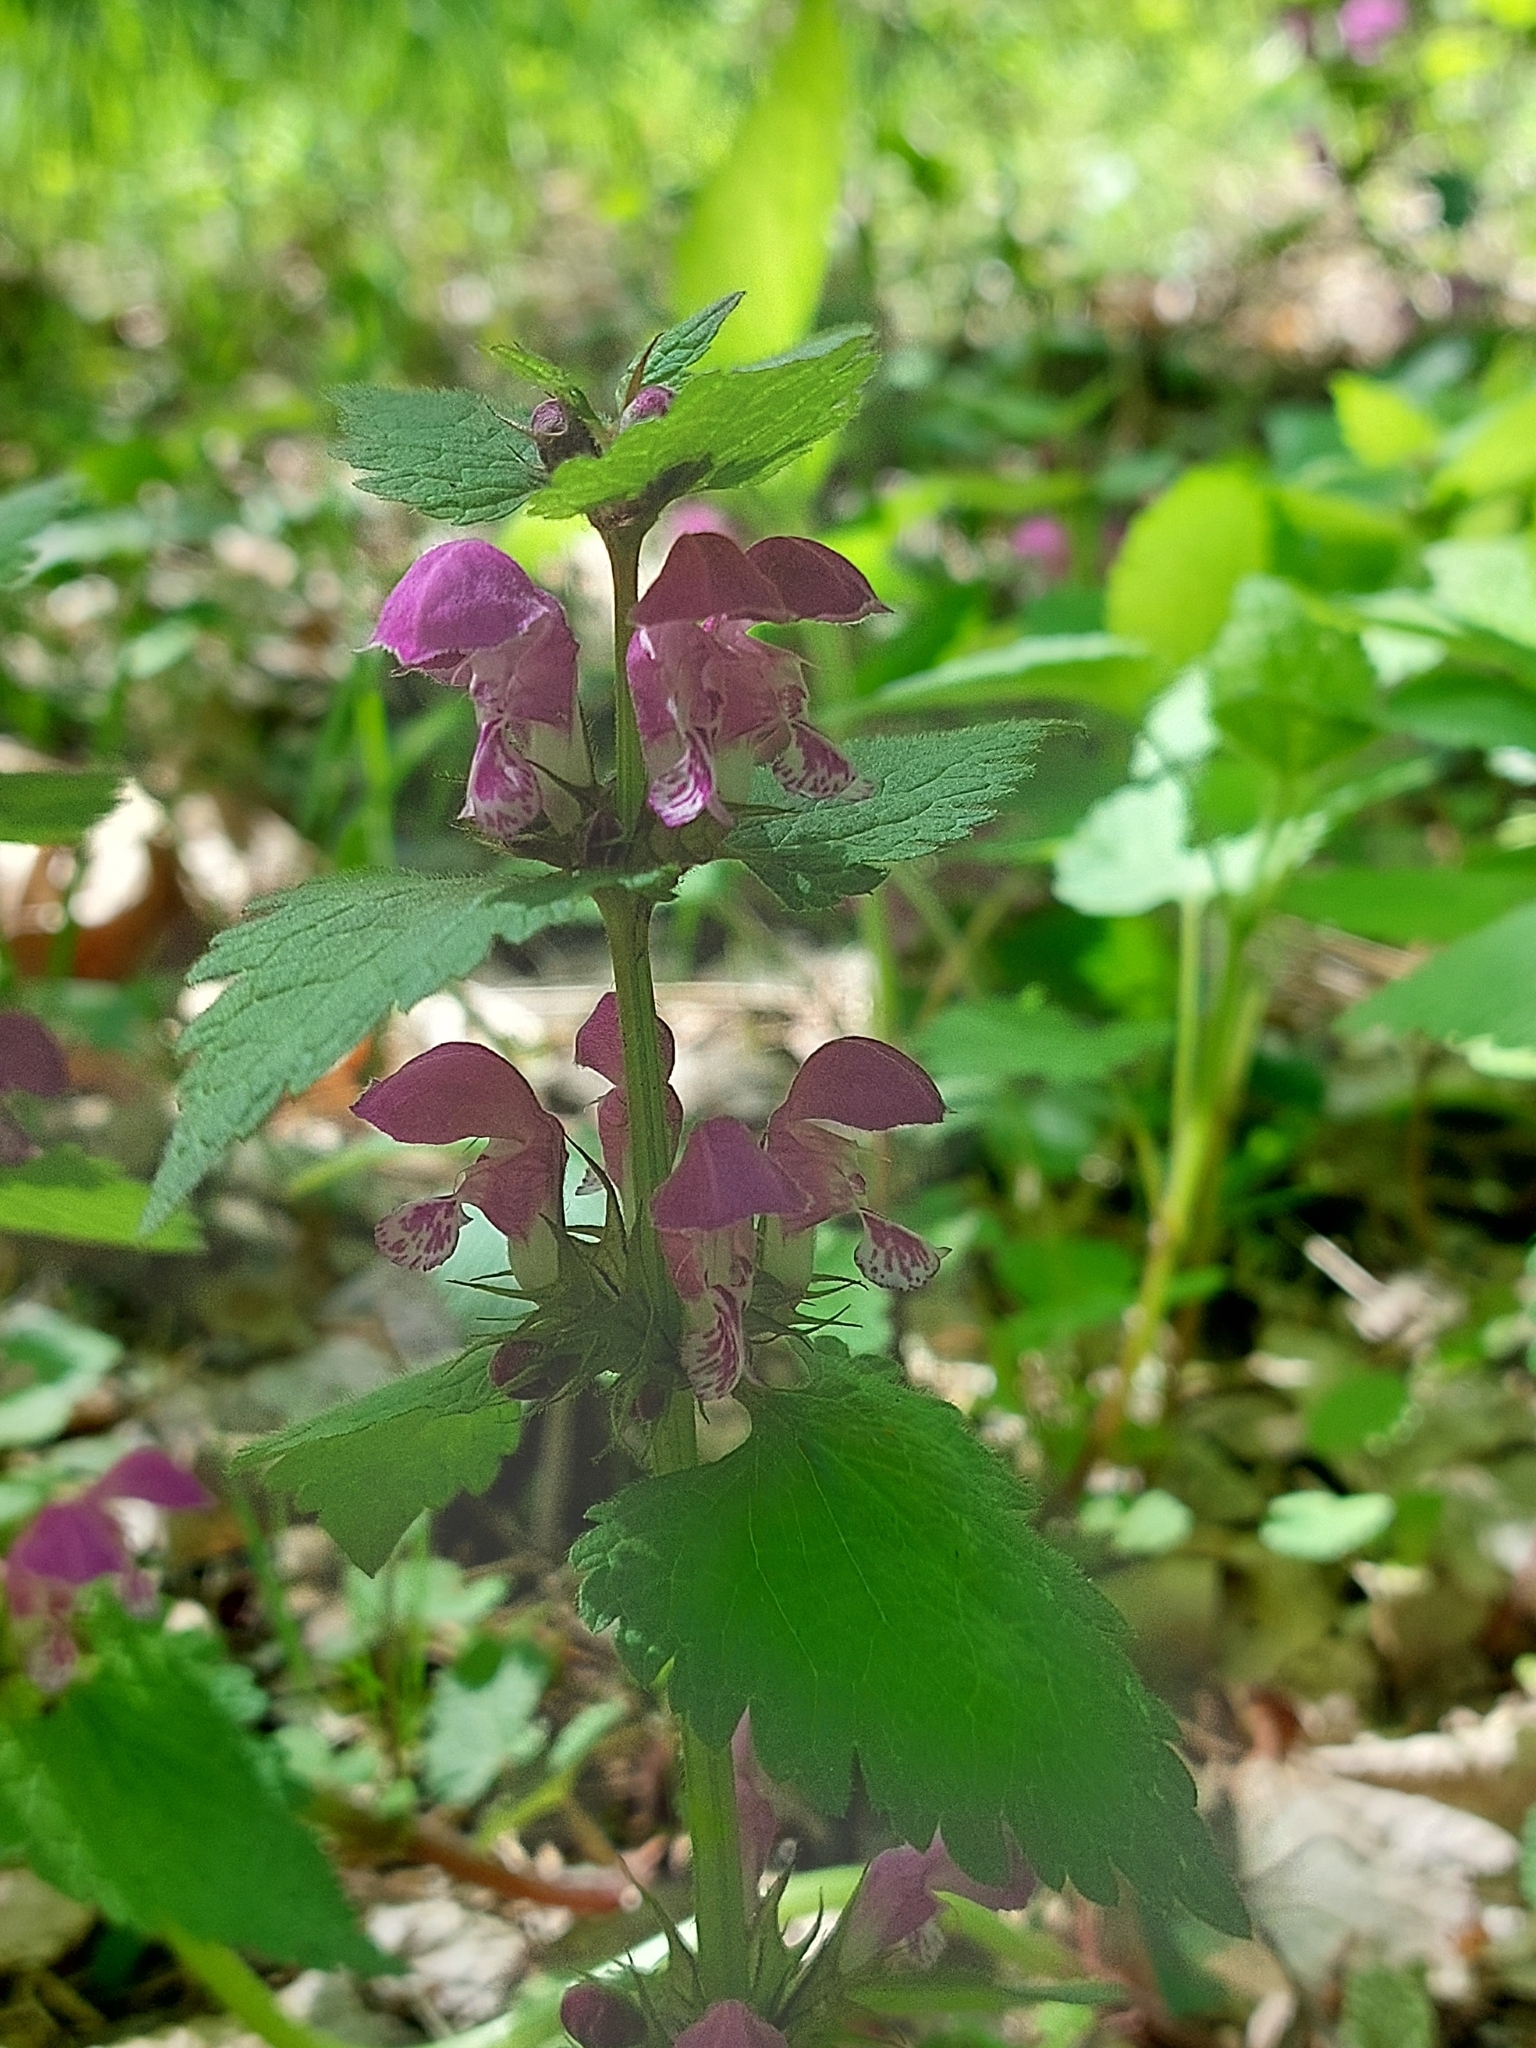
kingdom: Plantae
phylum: Tracheophyta
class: Magnoliopsida
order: Lamiales
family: Lamiaceae
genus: Lamium
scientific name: Lamium maculatum
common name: Spotted dead-nettle
